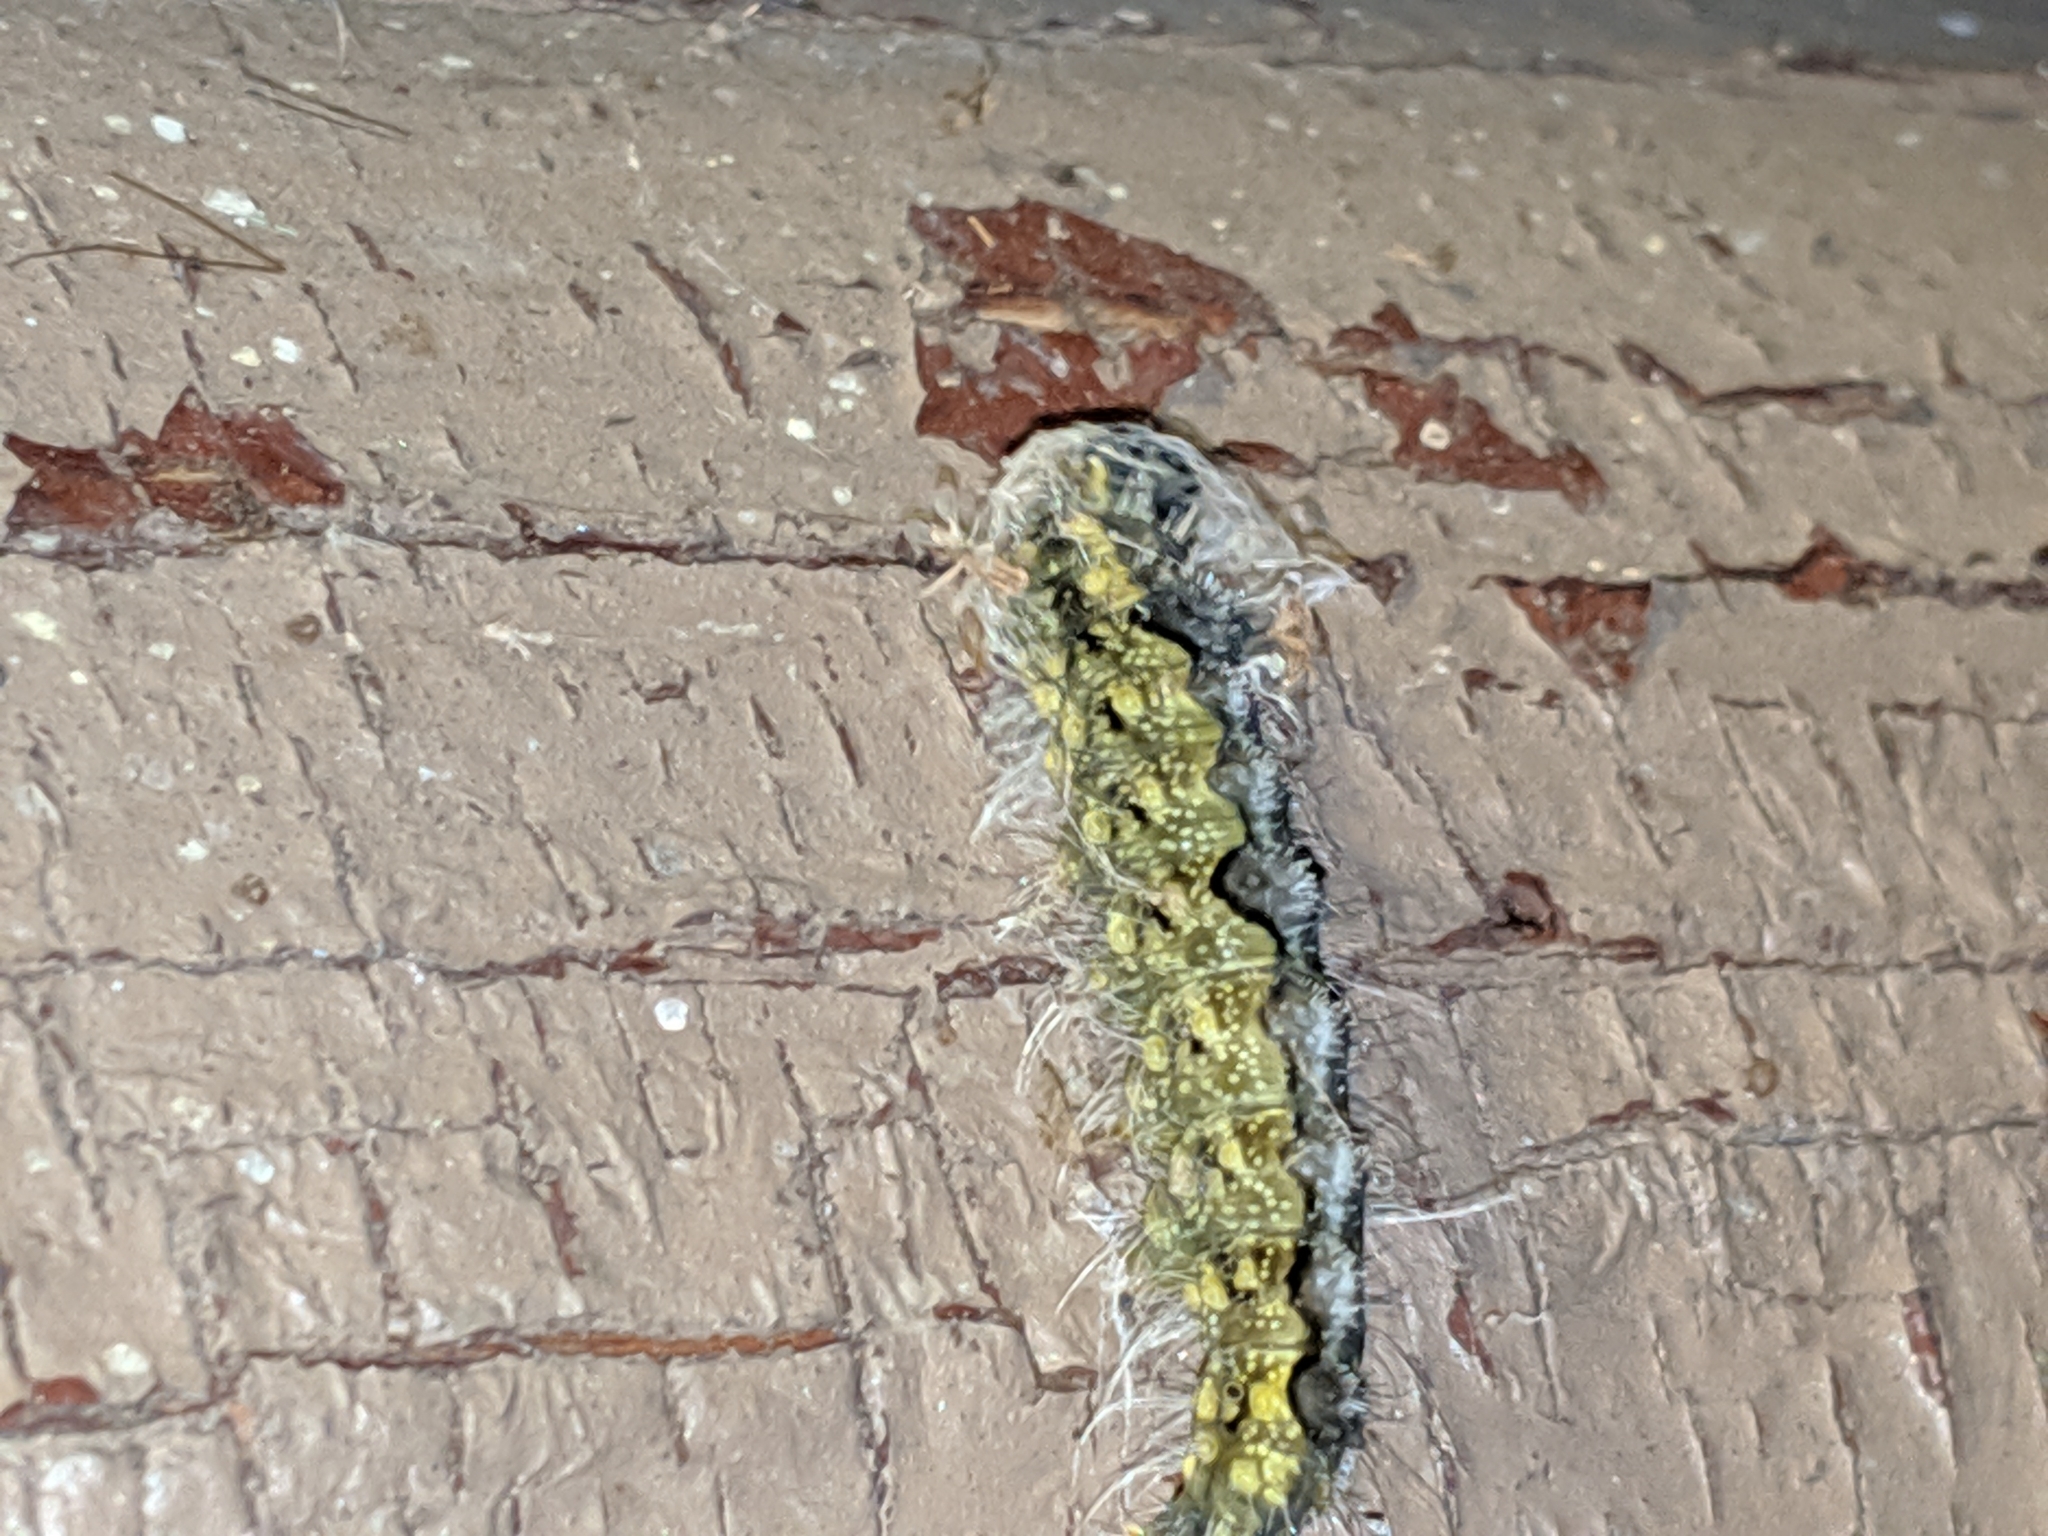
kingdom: Animalia
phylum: Arthropoda
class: Insecta
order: Lepidoptera
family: Noctuidae
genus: Acronicta
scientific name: Acronicta morula
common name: Ochre dagger
